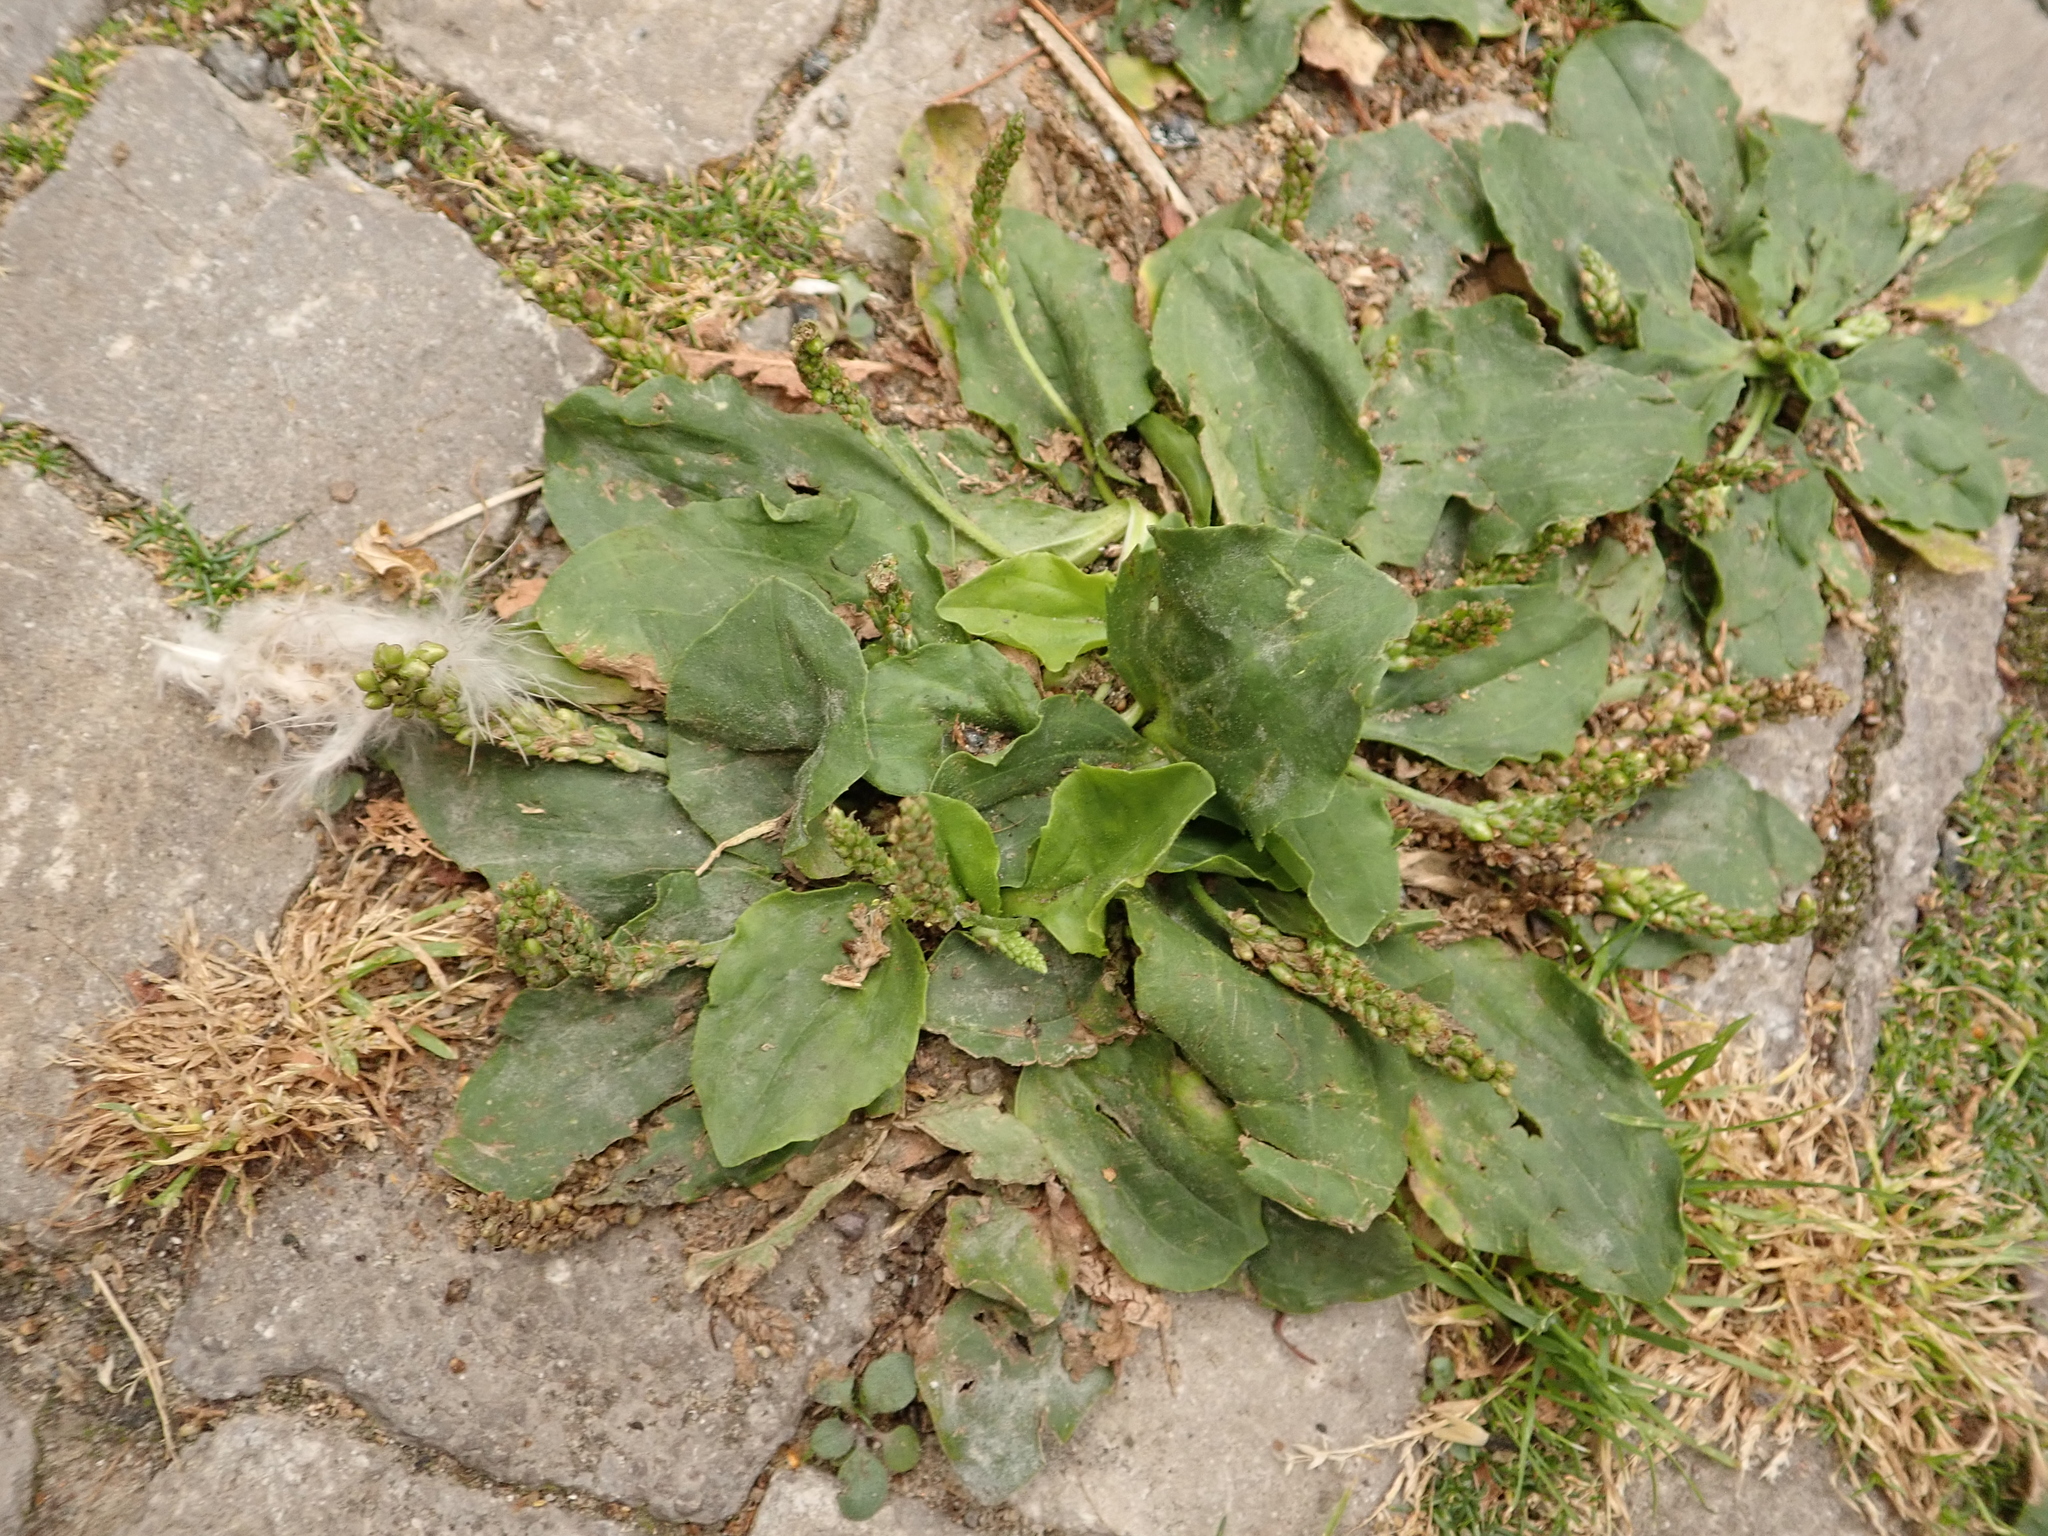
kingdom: Plantae
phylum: Tracheophyta
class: Magnoliopsida
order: Lamiales
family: Plantaginaceae
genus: Plantago
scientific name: Plantago major
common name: Common plantain
